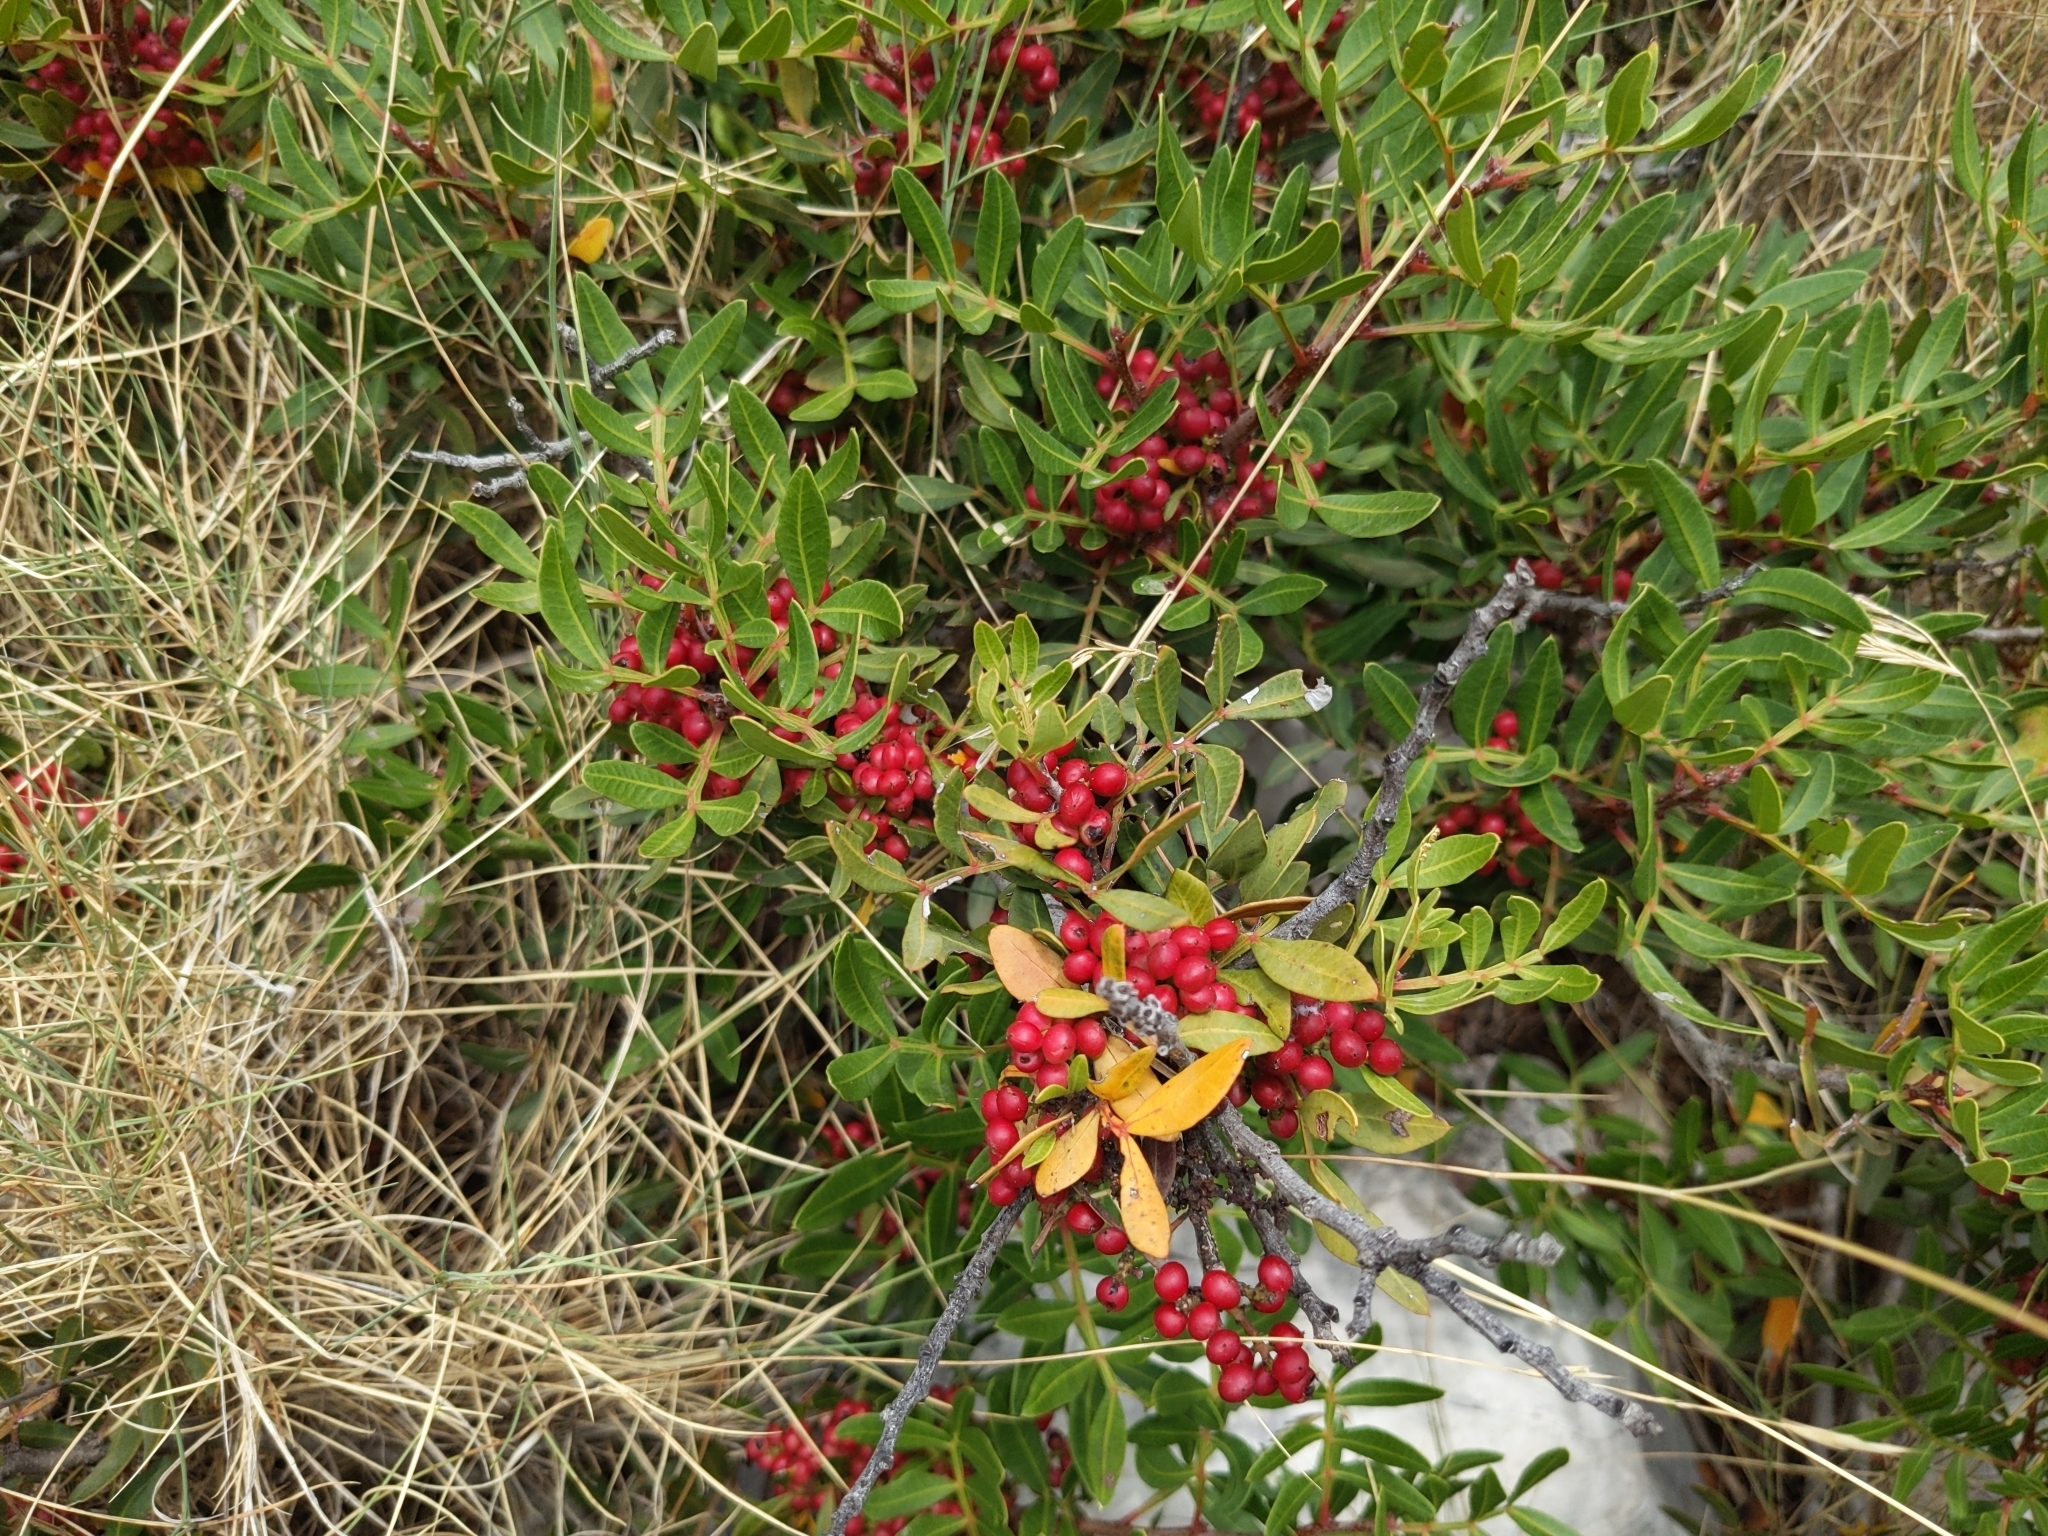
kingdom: Plantae
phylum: Tracheophyta
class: Magnoliopsida
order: Sapindales
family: Anacardiaceae
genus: Pistacia
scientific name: Pistacia lentiscus
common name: Lentisk
